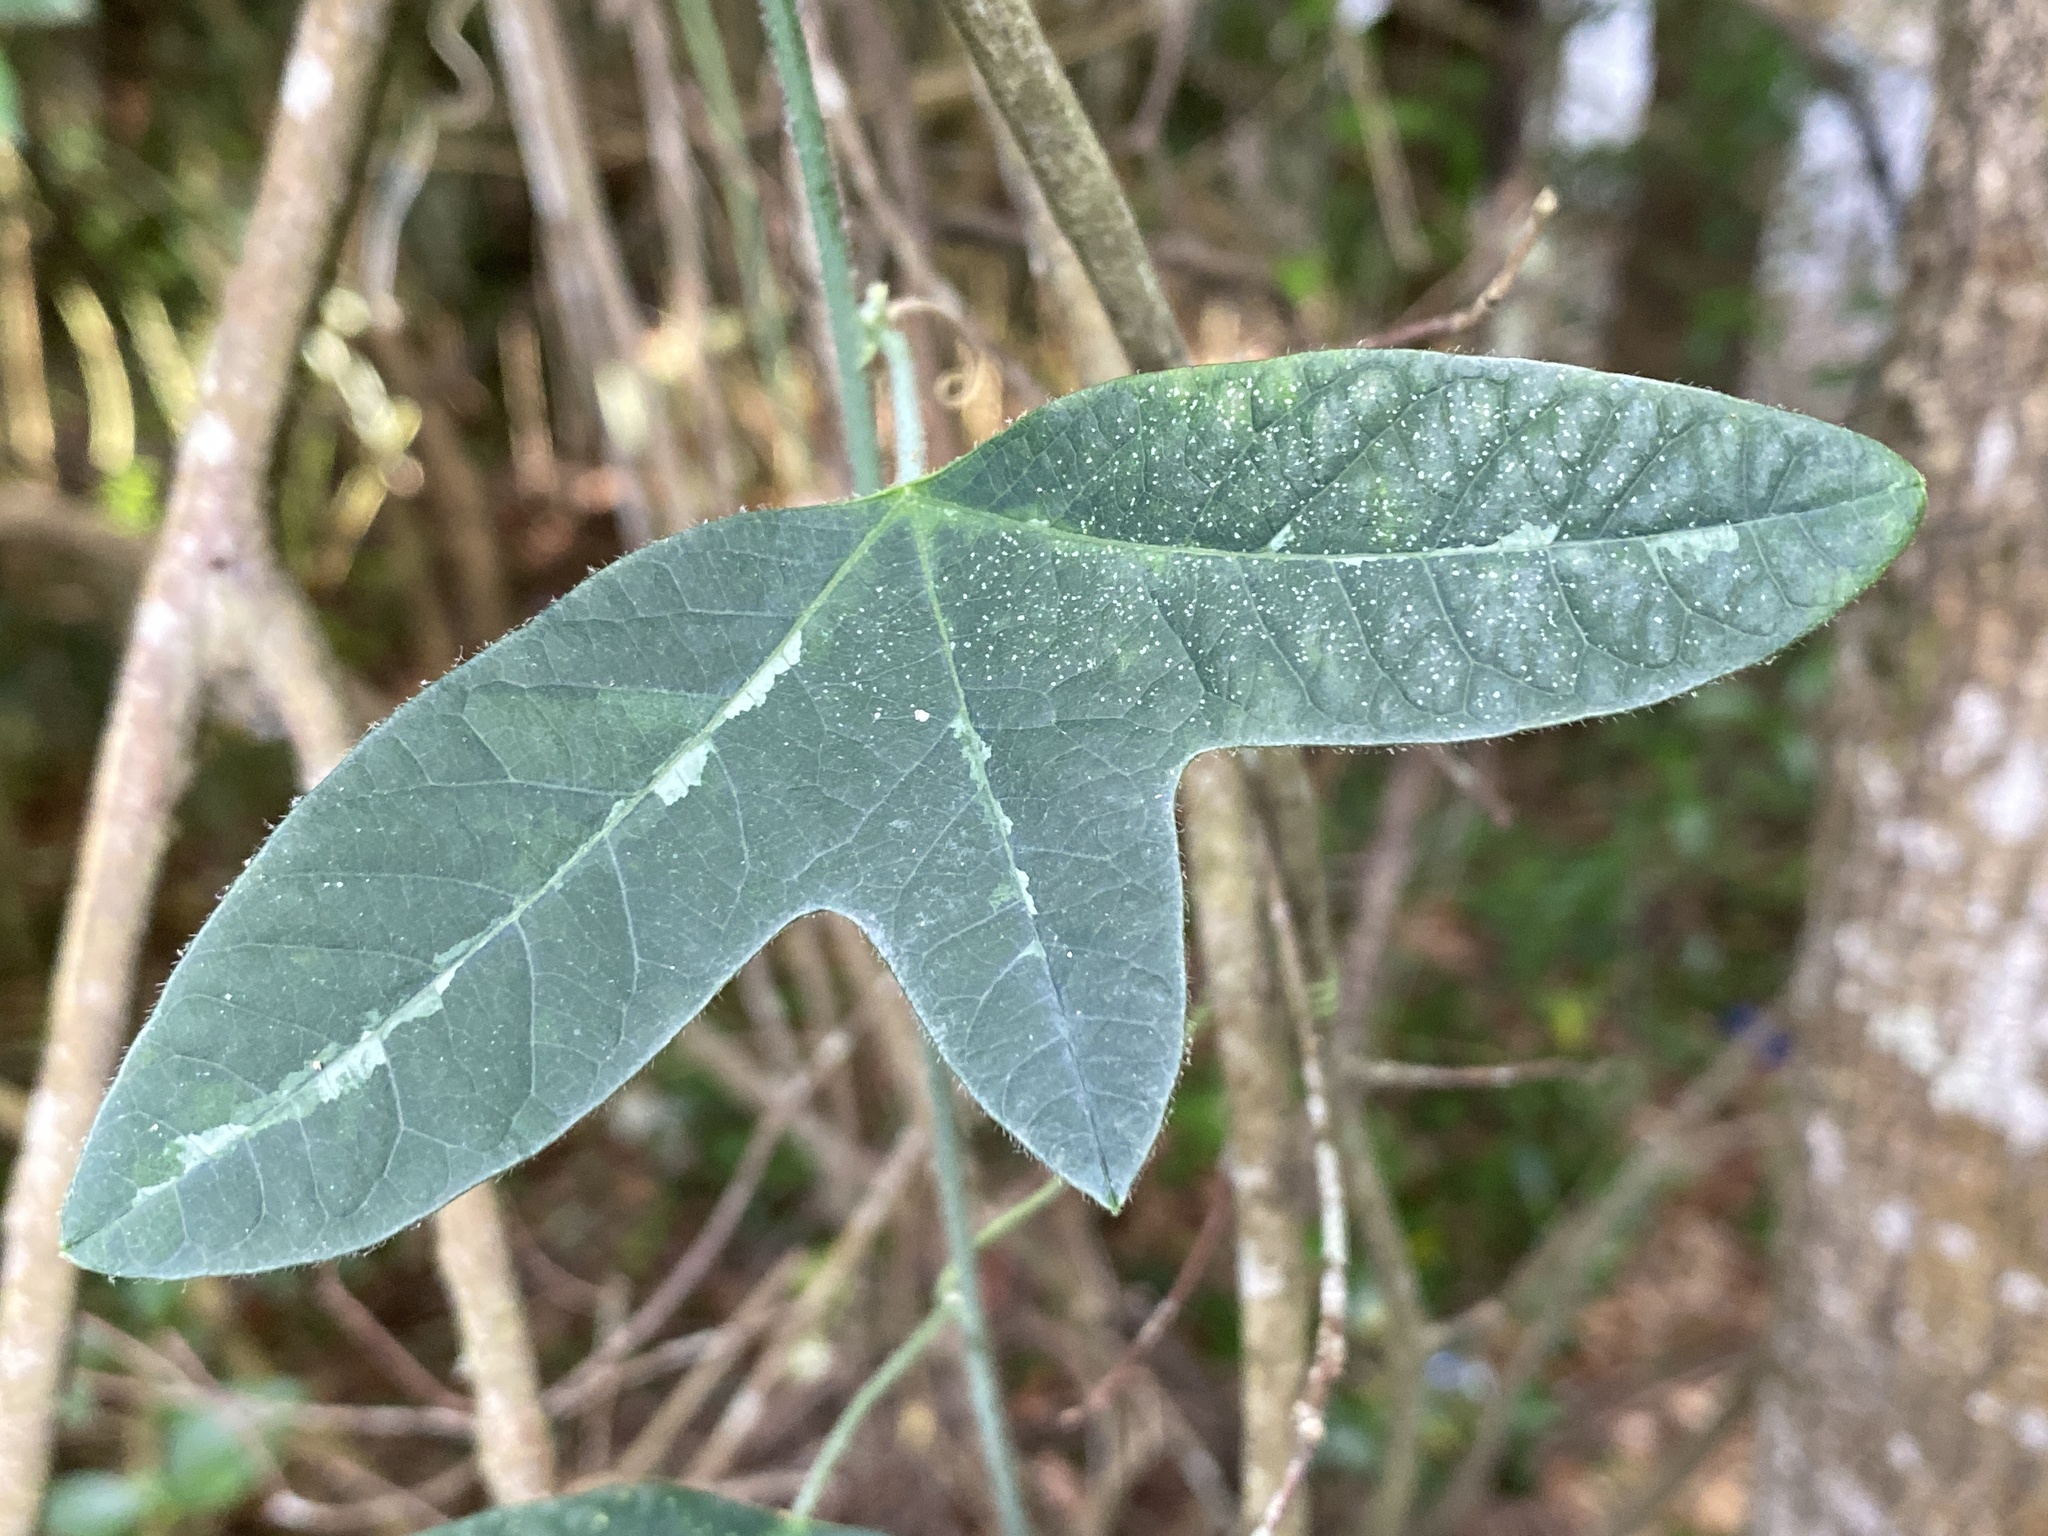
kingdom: Plantae
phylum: Tracheophyta
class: Magnoliopsida
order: Malpighiales
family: Passifloraceae
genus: Passiflora
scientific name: Passiflora lutea
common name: Yellow passionflower
